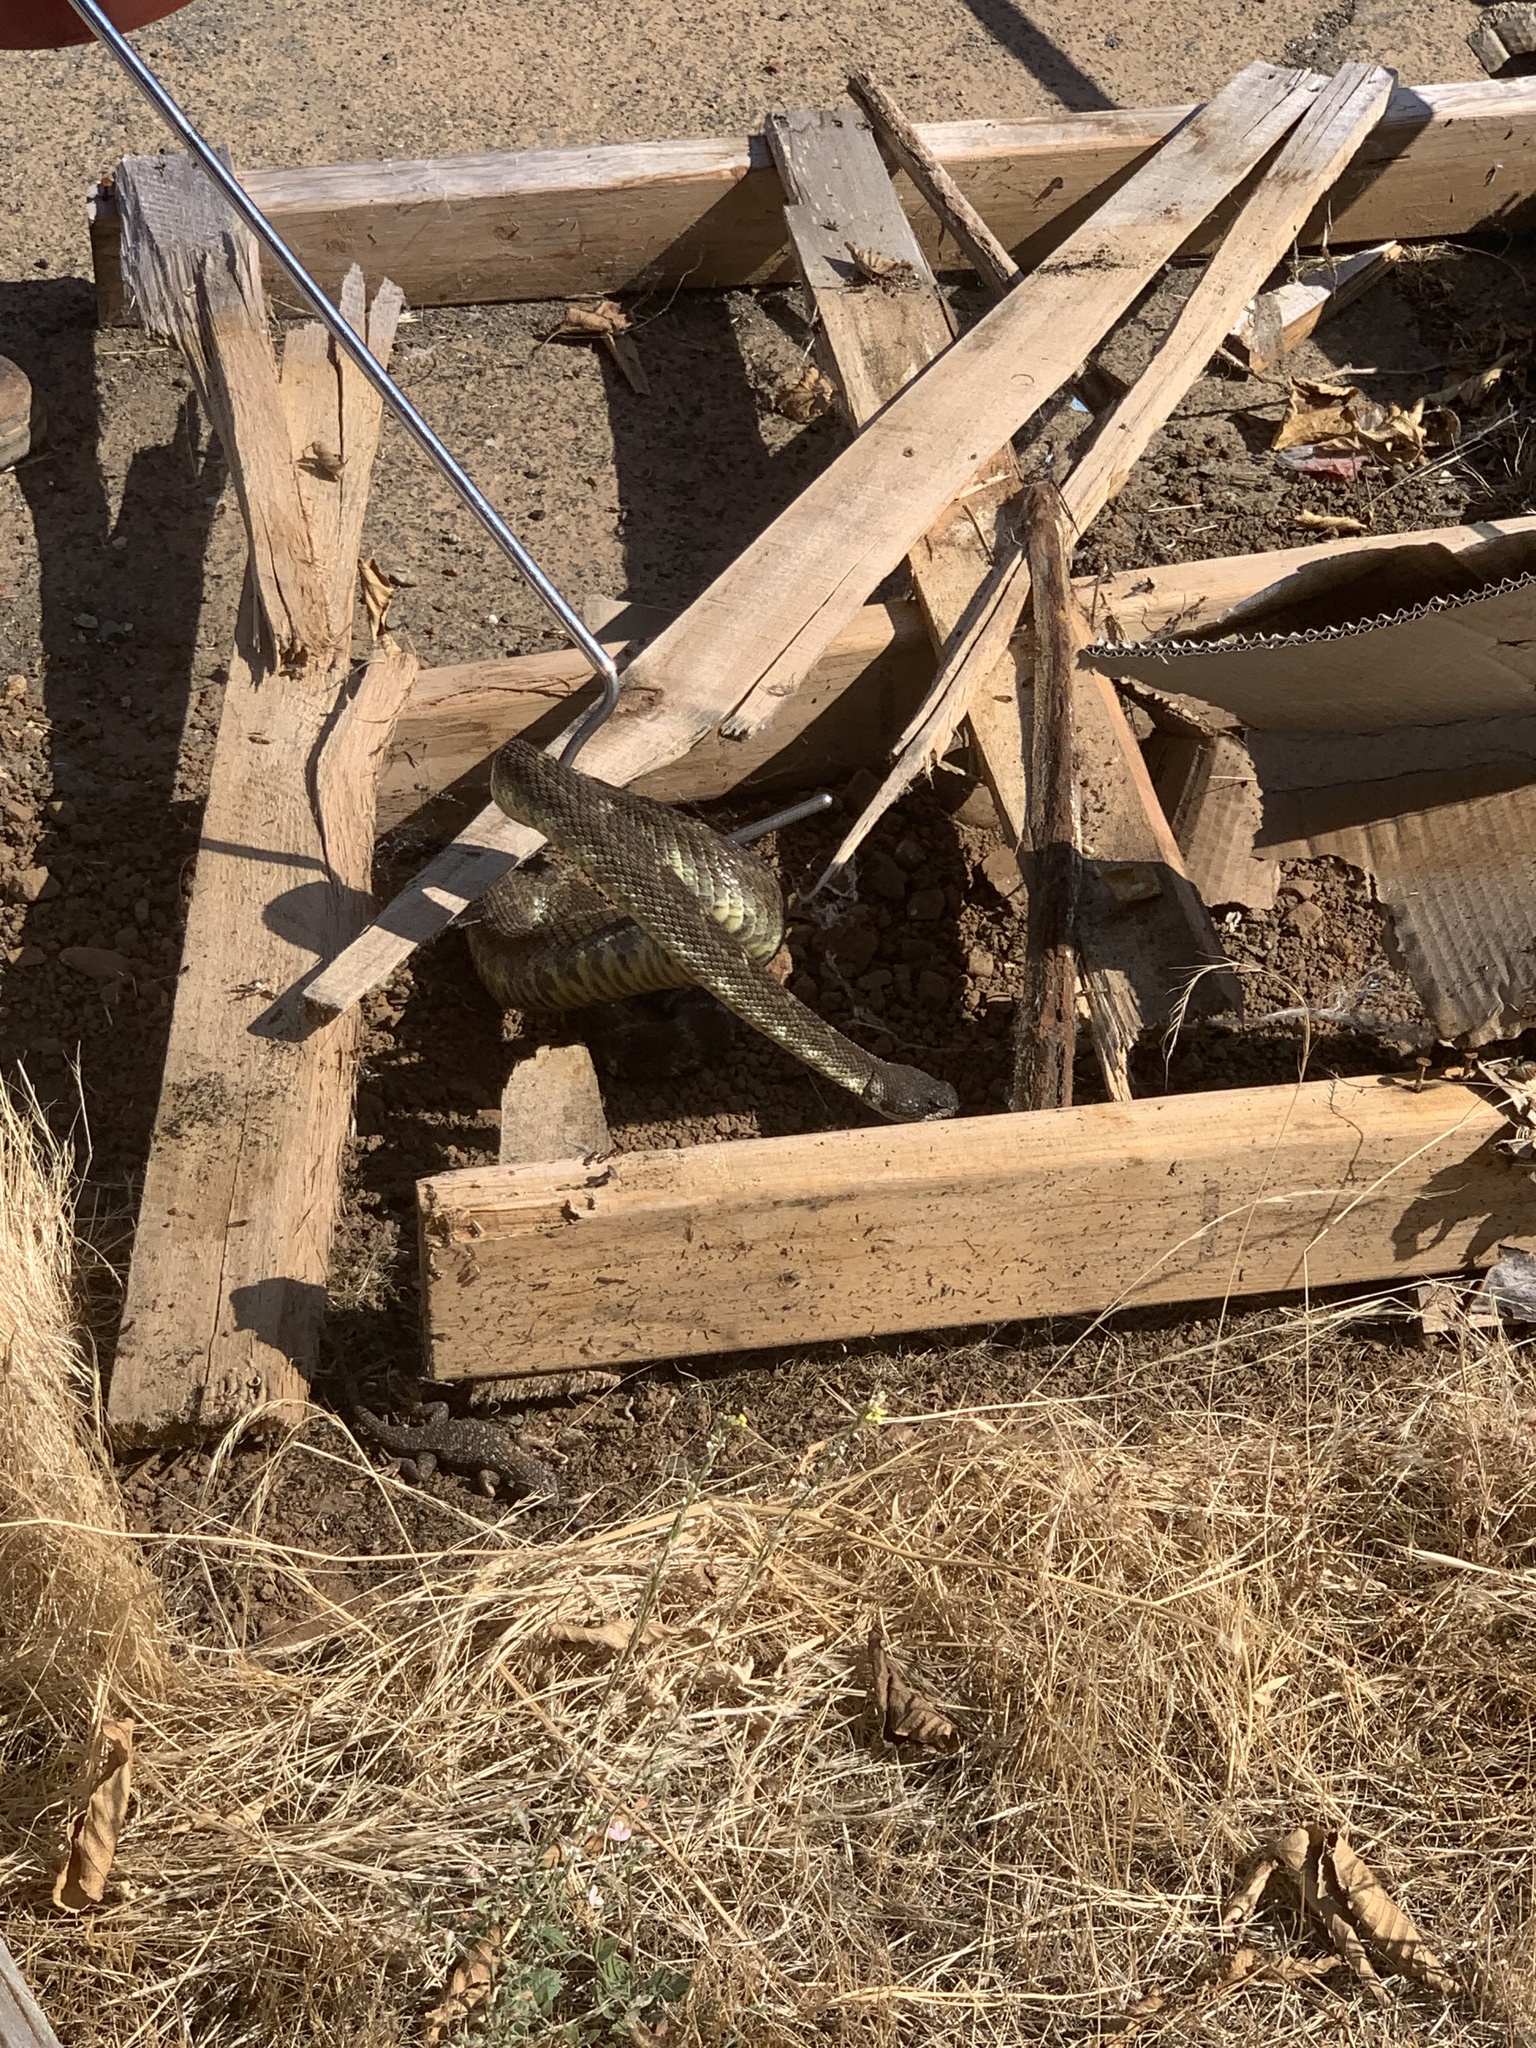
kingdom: Animalia
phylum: Chordata
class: Squamata
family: Viperidae
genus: Crotalus
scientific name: Crotalus oreganus
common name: Abyssus
